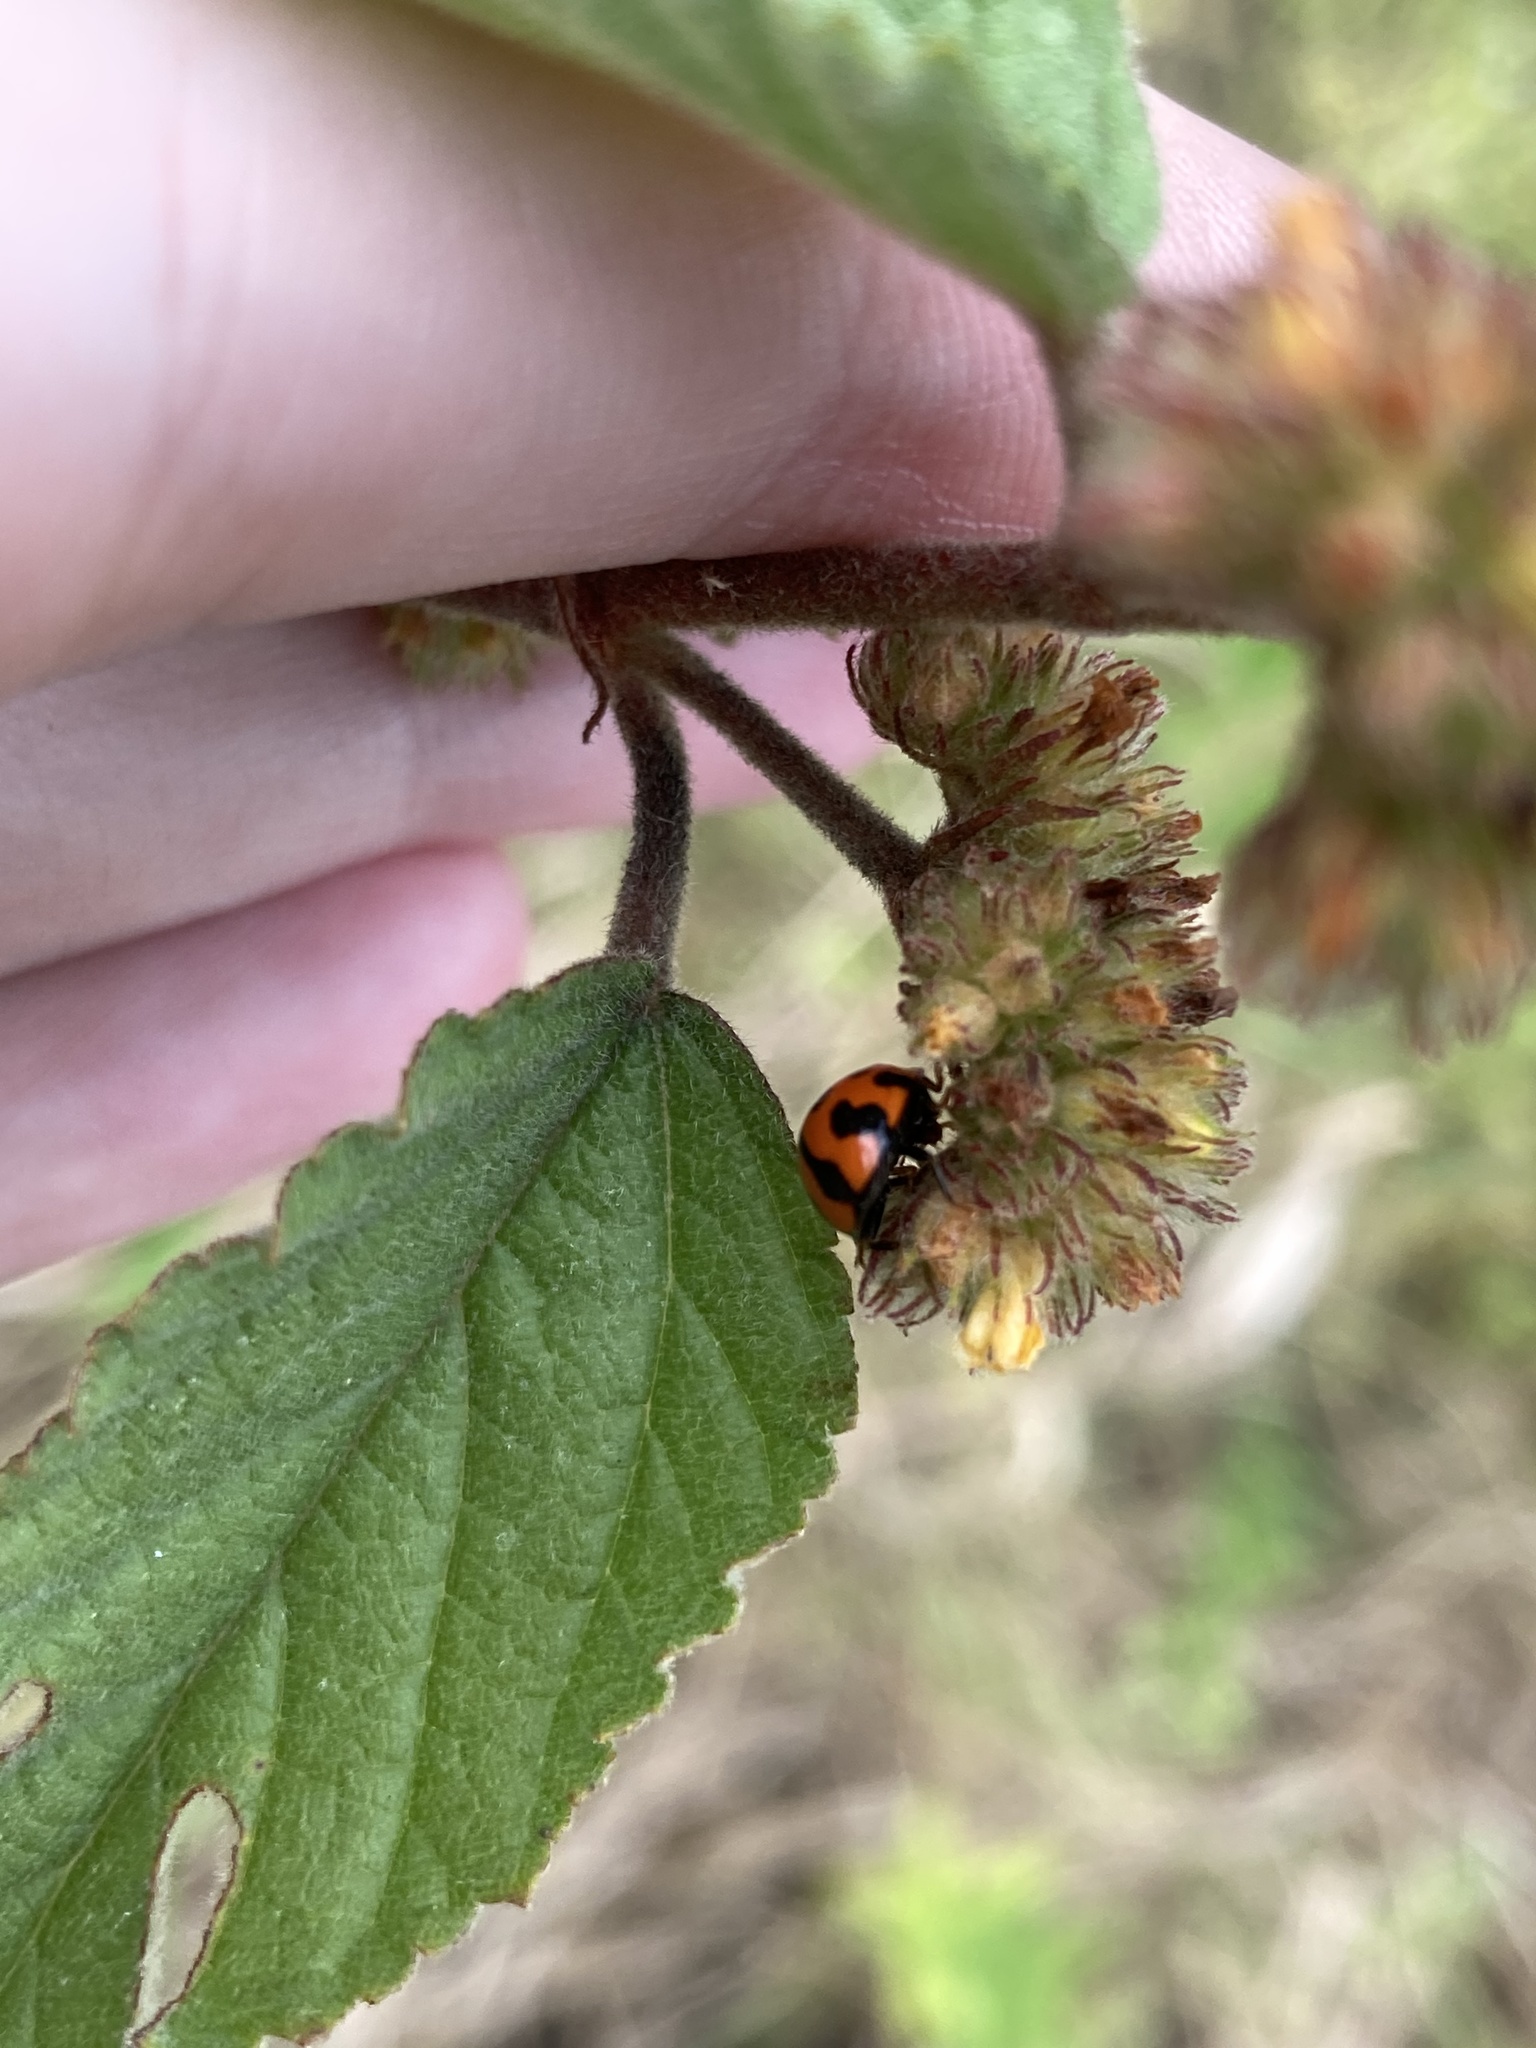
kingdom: Animalia
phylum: Arthropoda
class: Insecta
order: Coleoptera
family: Coccinellidae
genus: Coelophora
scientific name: Coelophora inaequalis
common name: Common australian lady beetle
